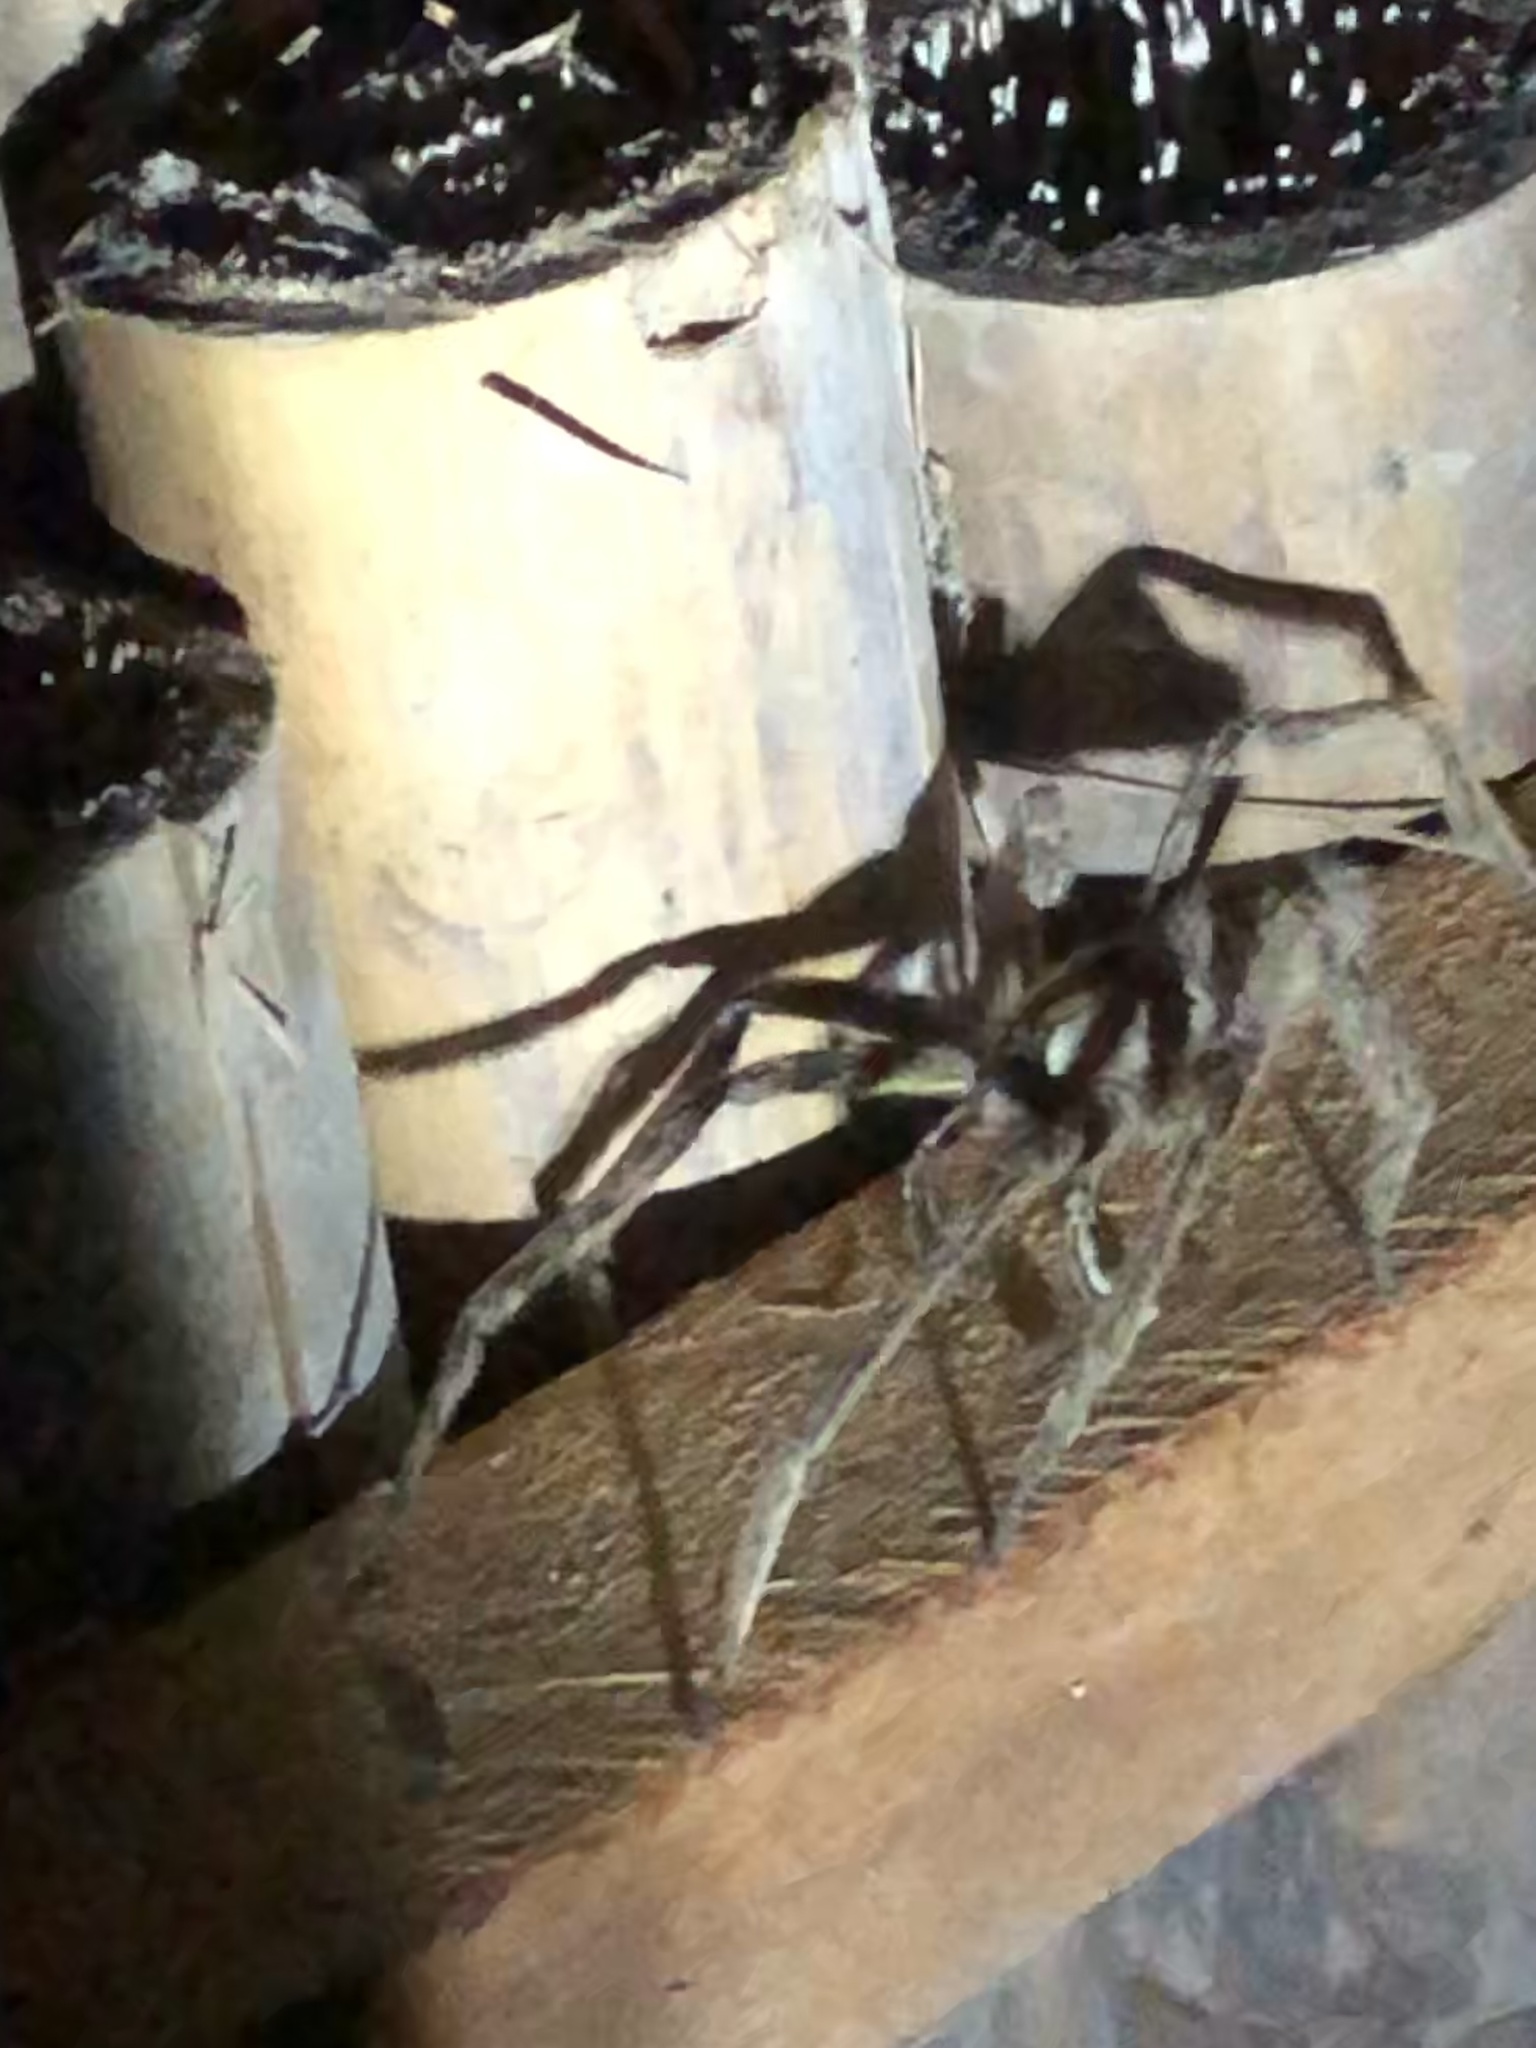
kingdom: Animalia
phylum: Arthropoda
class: Arachnida
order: Araneae
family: Ctenidae
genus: Phoneutria
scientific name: Phoneutria boliviensis
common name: Wandering spiders
